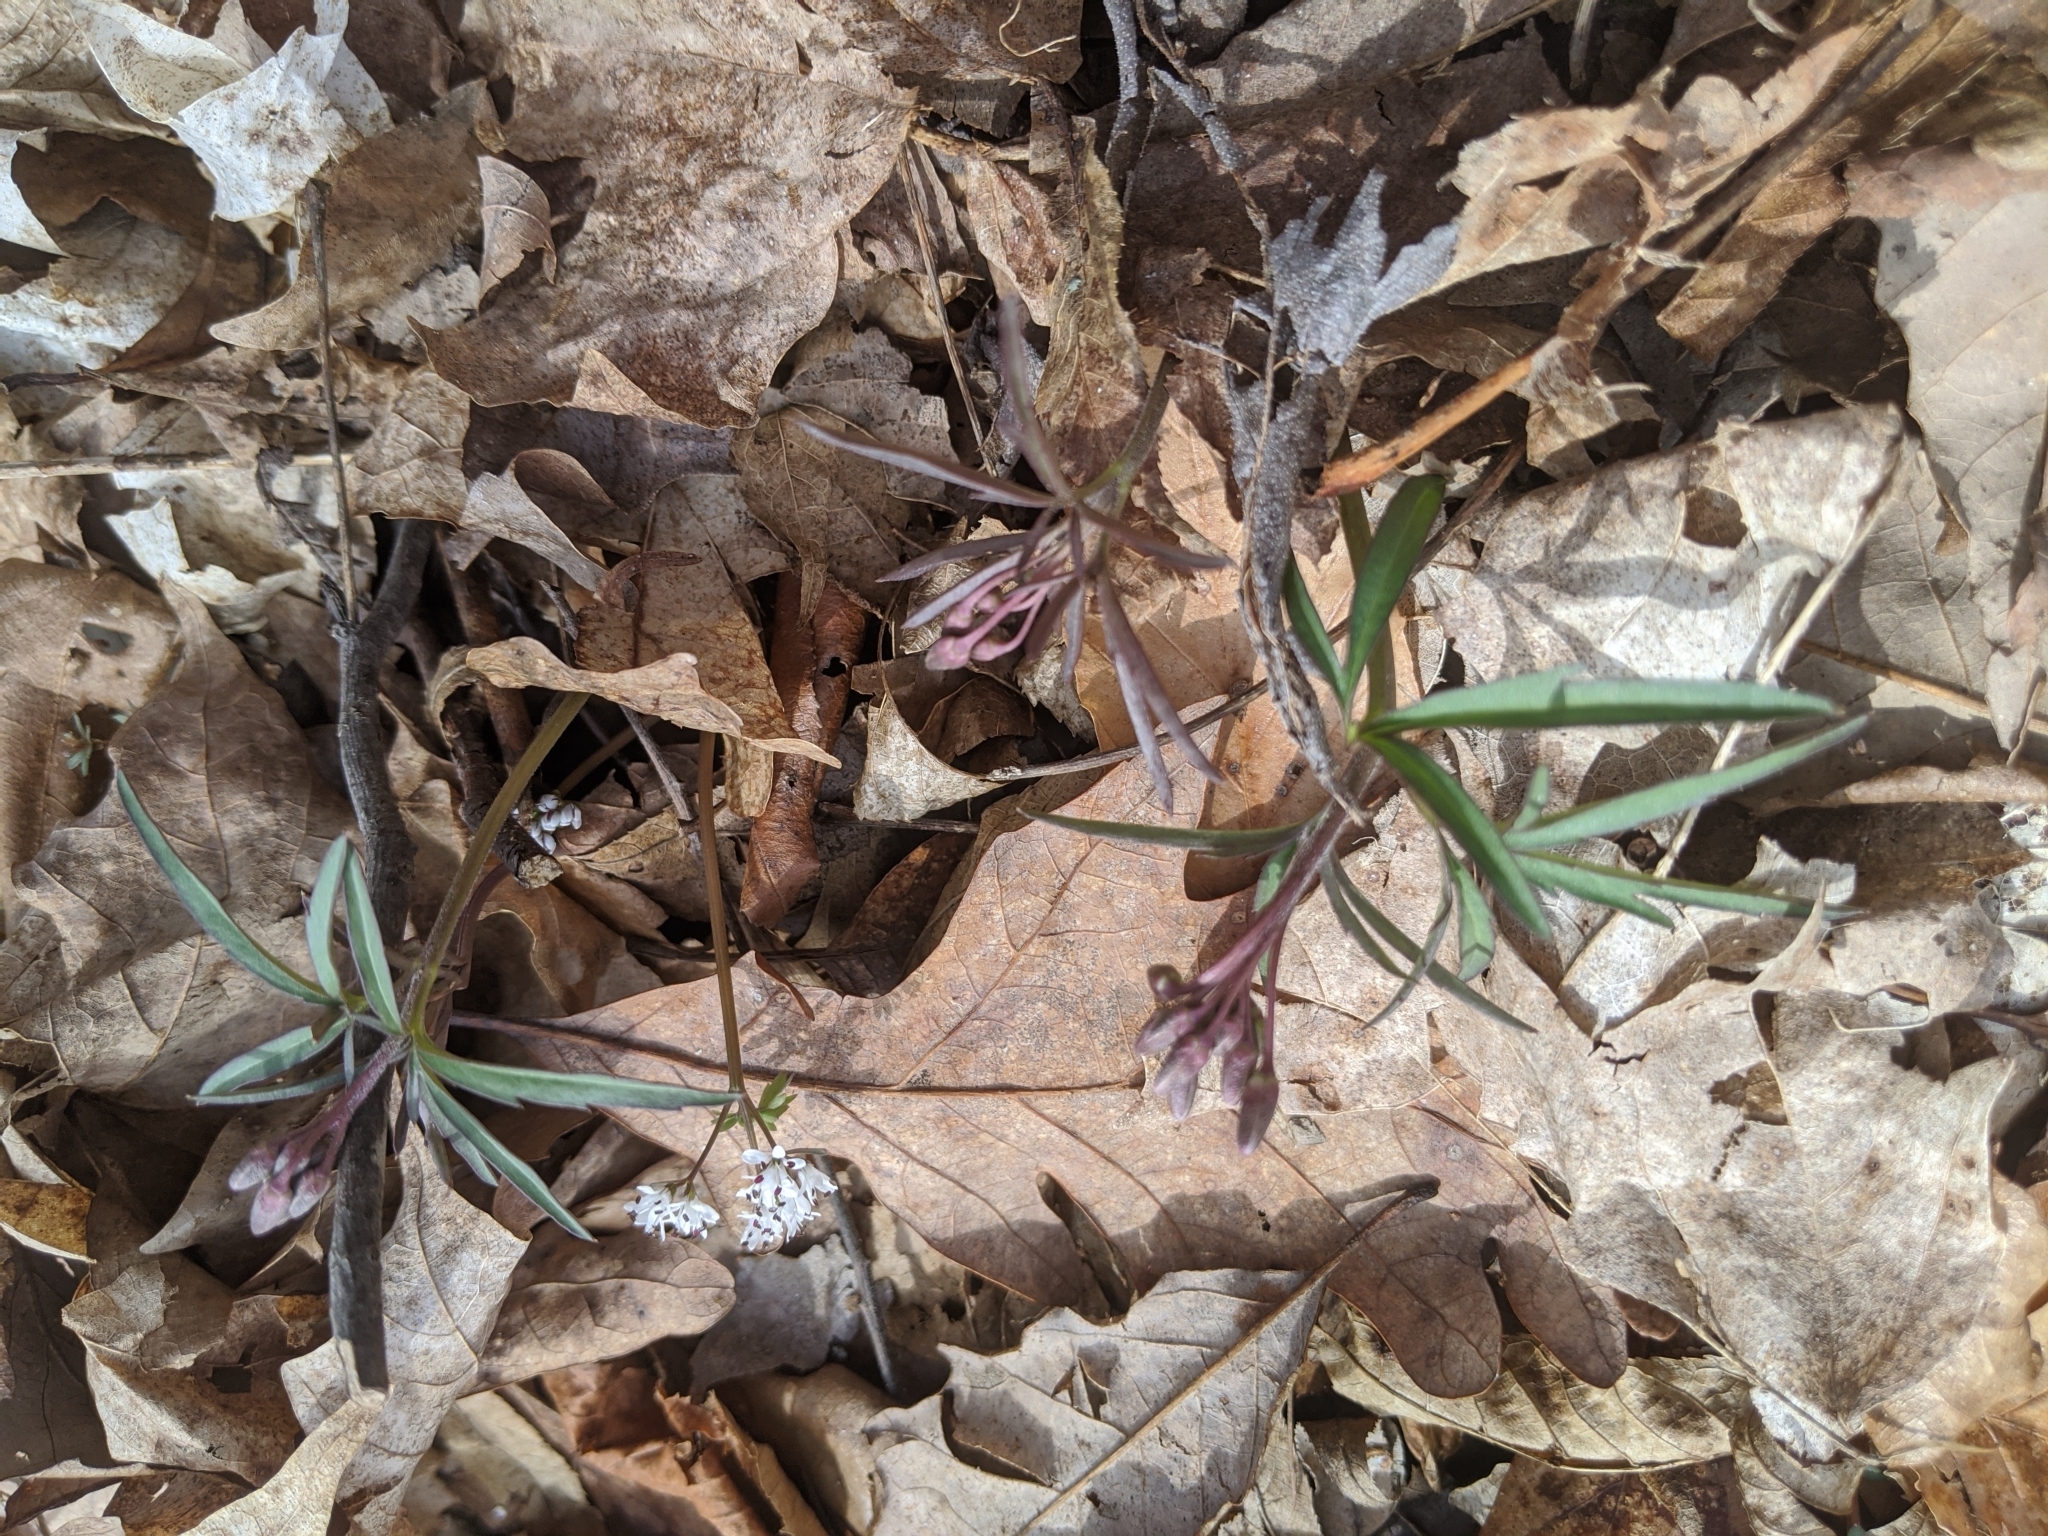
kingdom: Plantae
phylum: Tracheophyta
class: Magnoliopsida
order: Brassicales
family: Brassicaceae
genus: Cardamine
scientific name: Cardamine concatenata
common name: Cut-leaf toothcup
